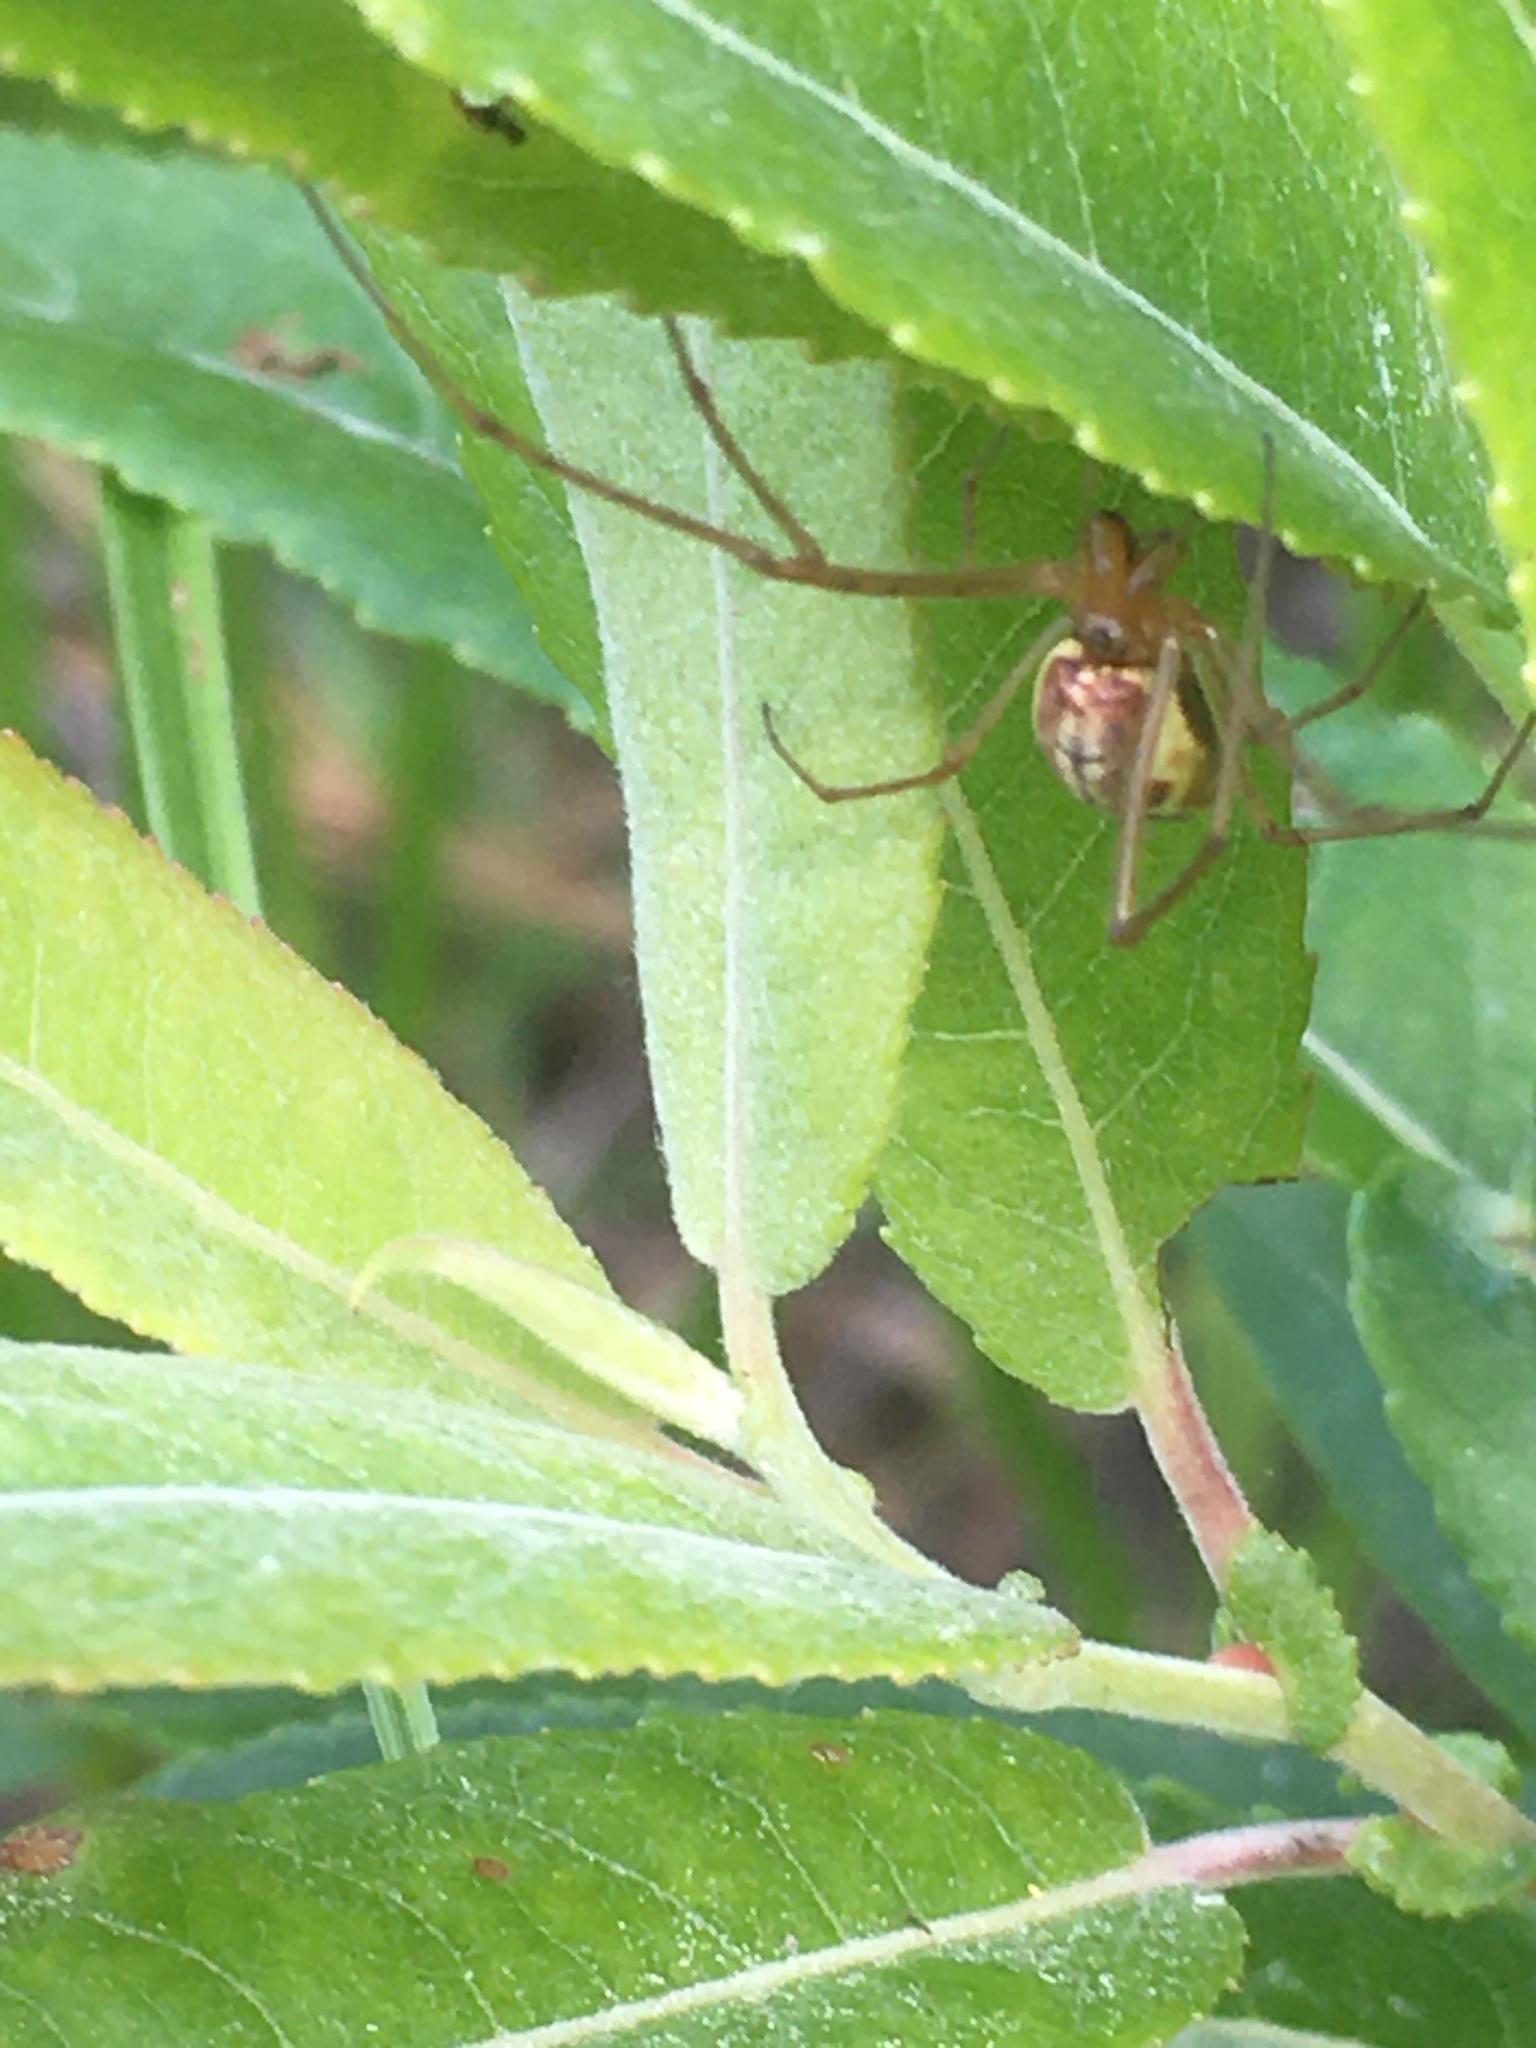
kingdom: Animalia
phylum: Arthropoda
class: Arachnida
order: Araneae
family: Tetragnathidae
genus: Tetragnatha
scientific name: Tetragnatha
